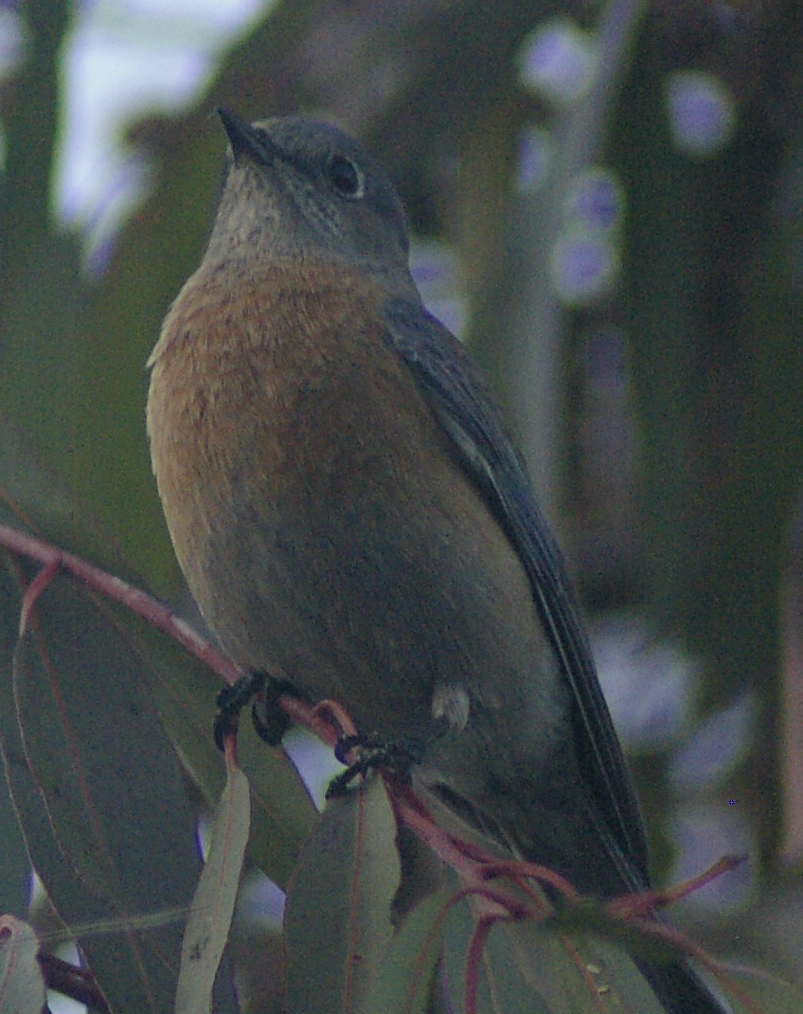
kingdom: Animalia
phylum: Chordata
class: Aves
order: Passeriformes
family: Turdidae
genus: Sialia
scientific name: Sialia mexicana
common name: Western bluebird
